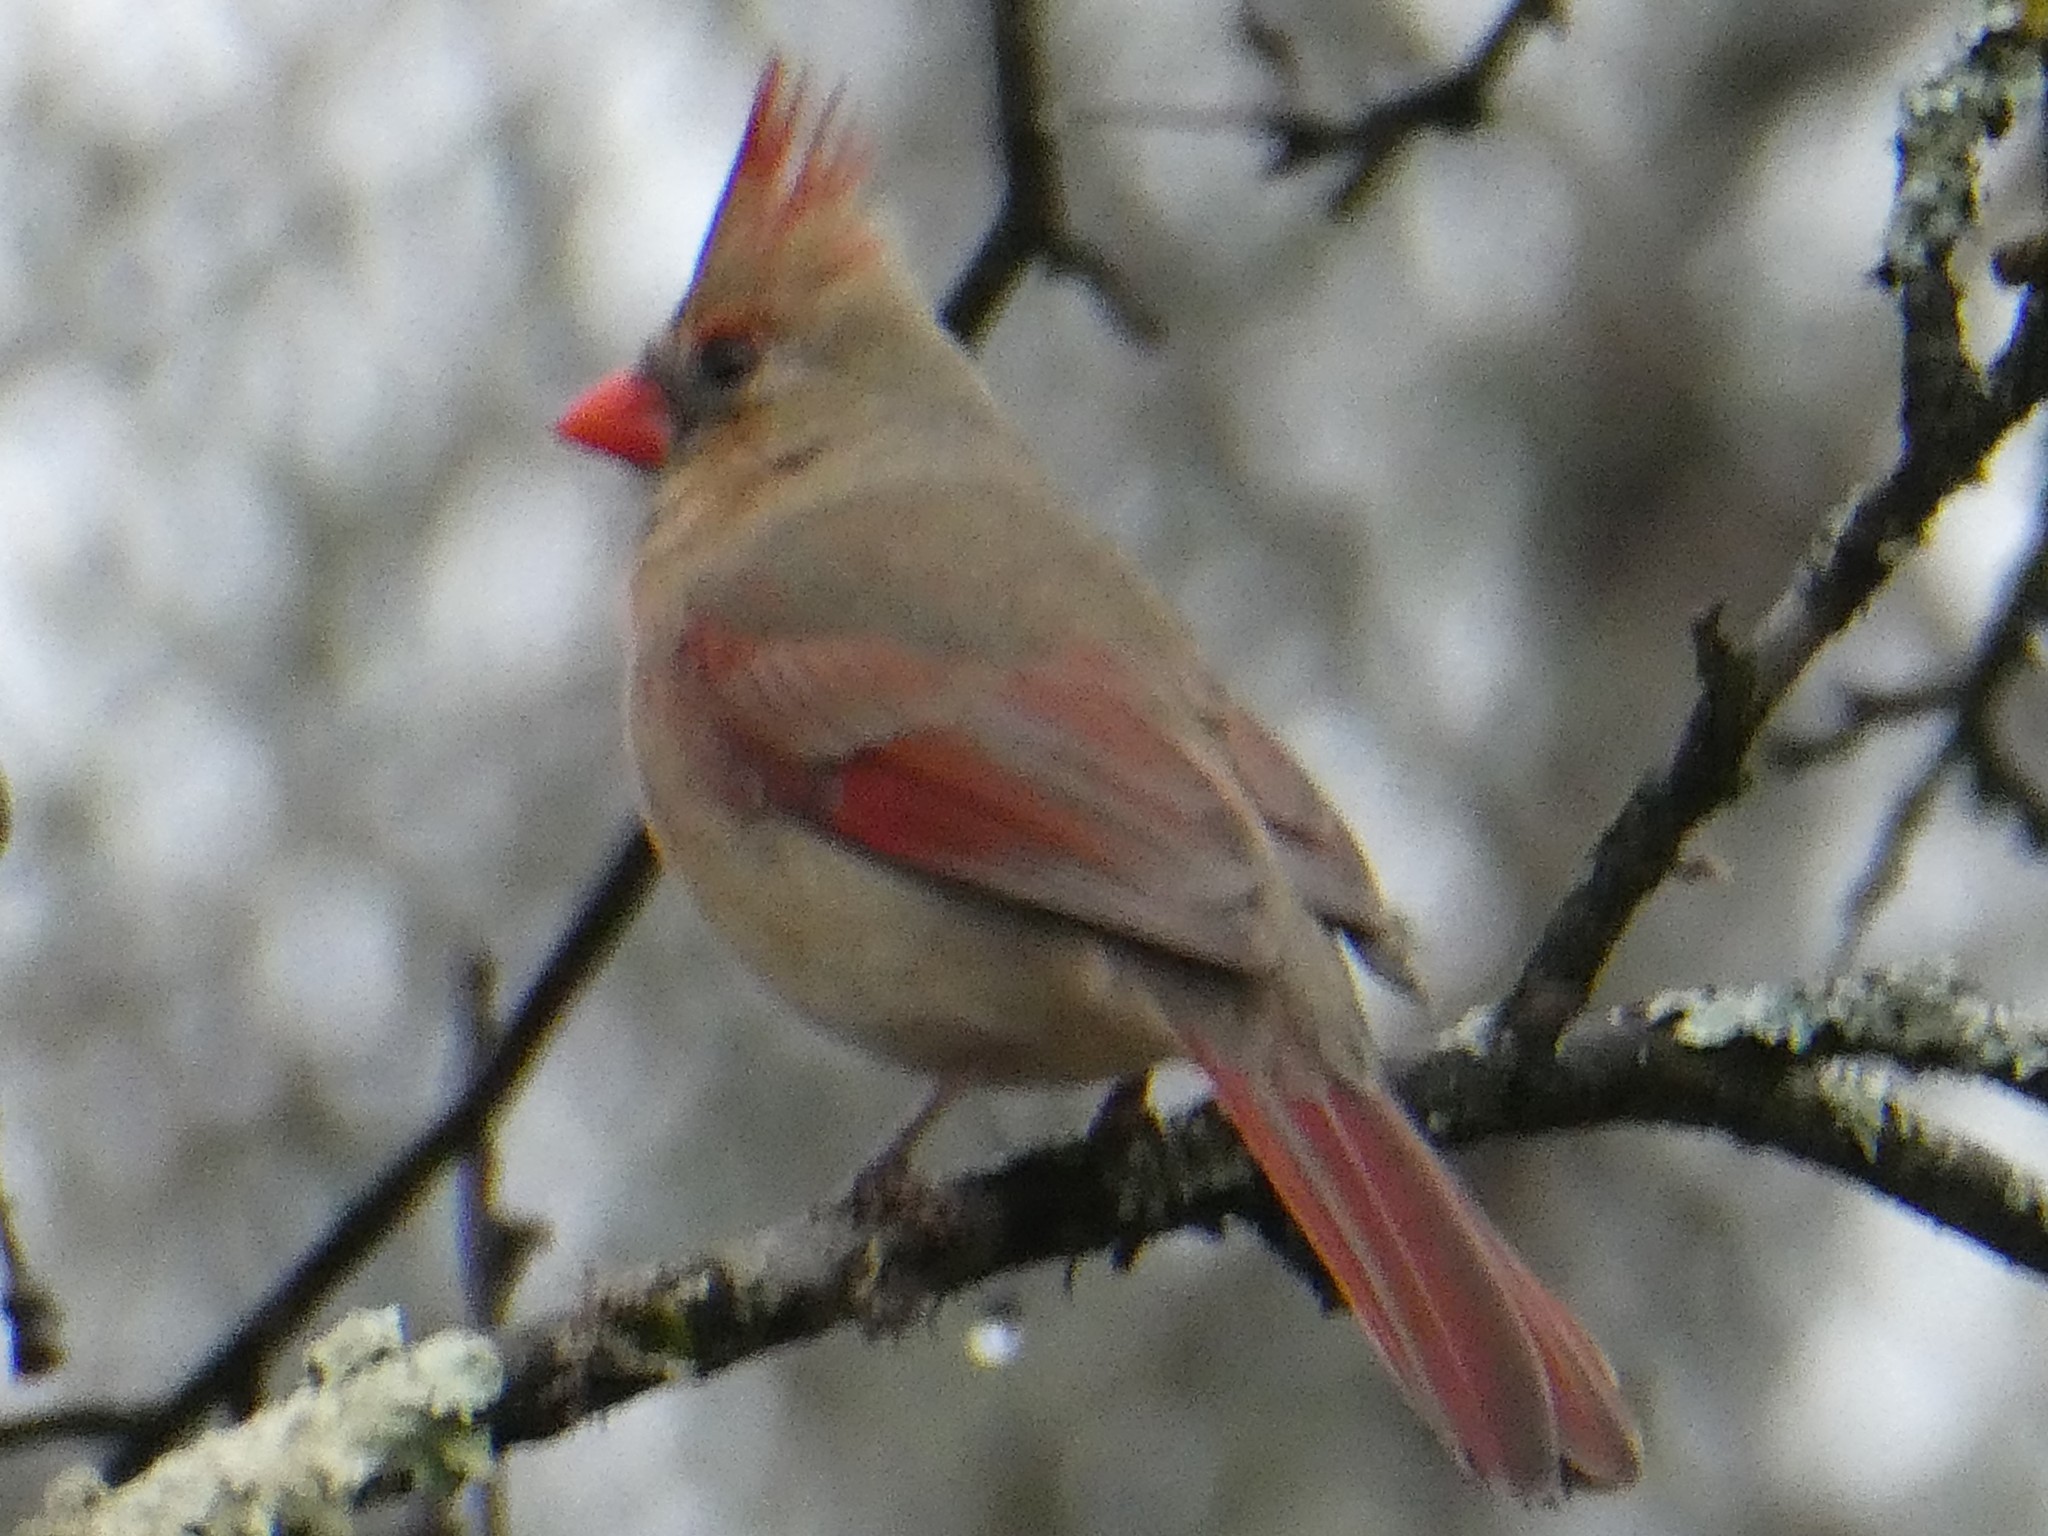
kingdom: Animalia
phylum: Chordata
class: Aves
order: Passeriformes
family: Cardinalidae
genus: Cardinalis
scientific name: Cardinalis cardinalis
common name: Northern cardinal
